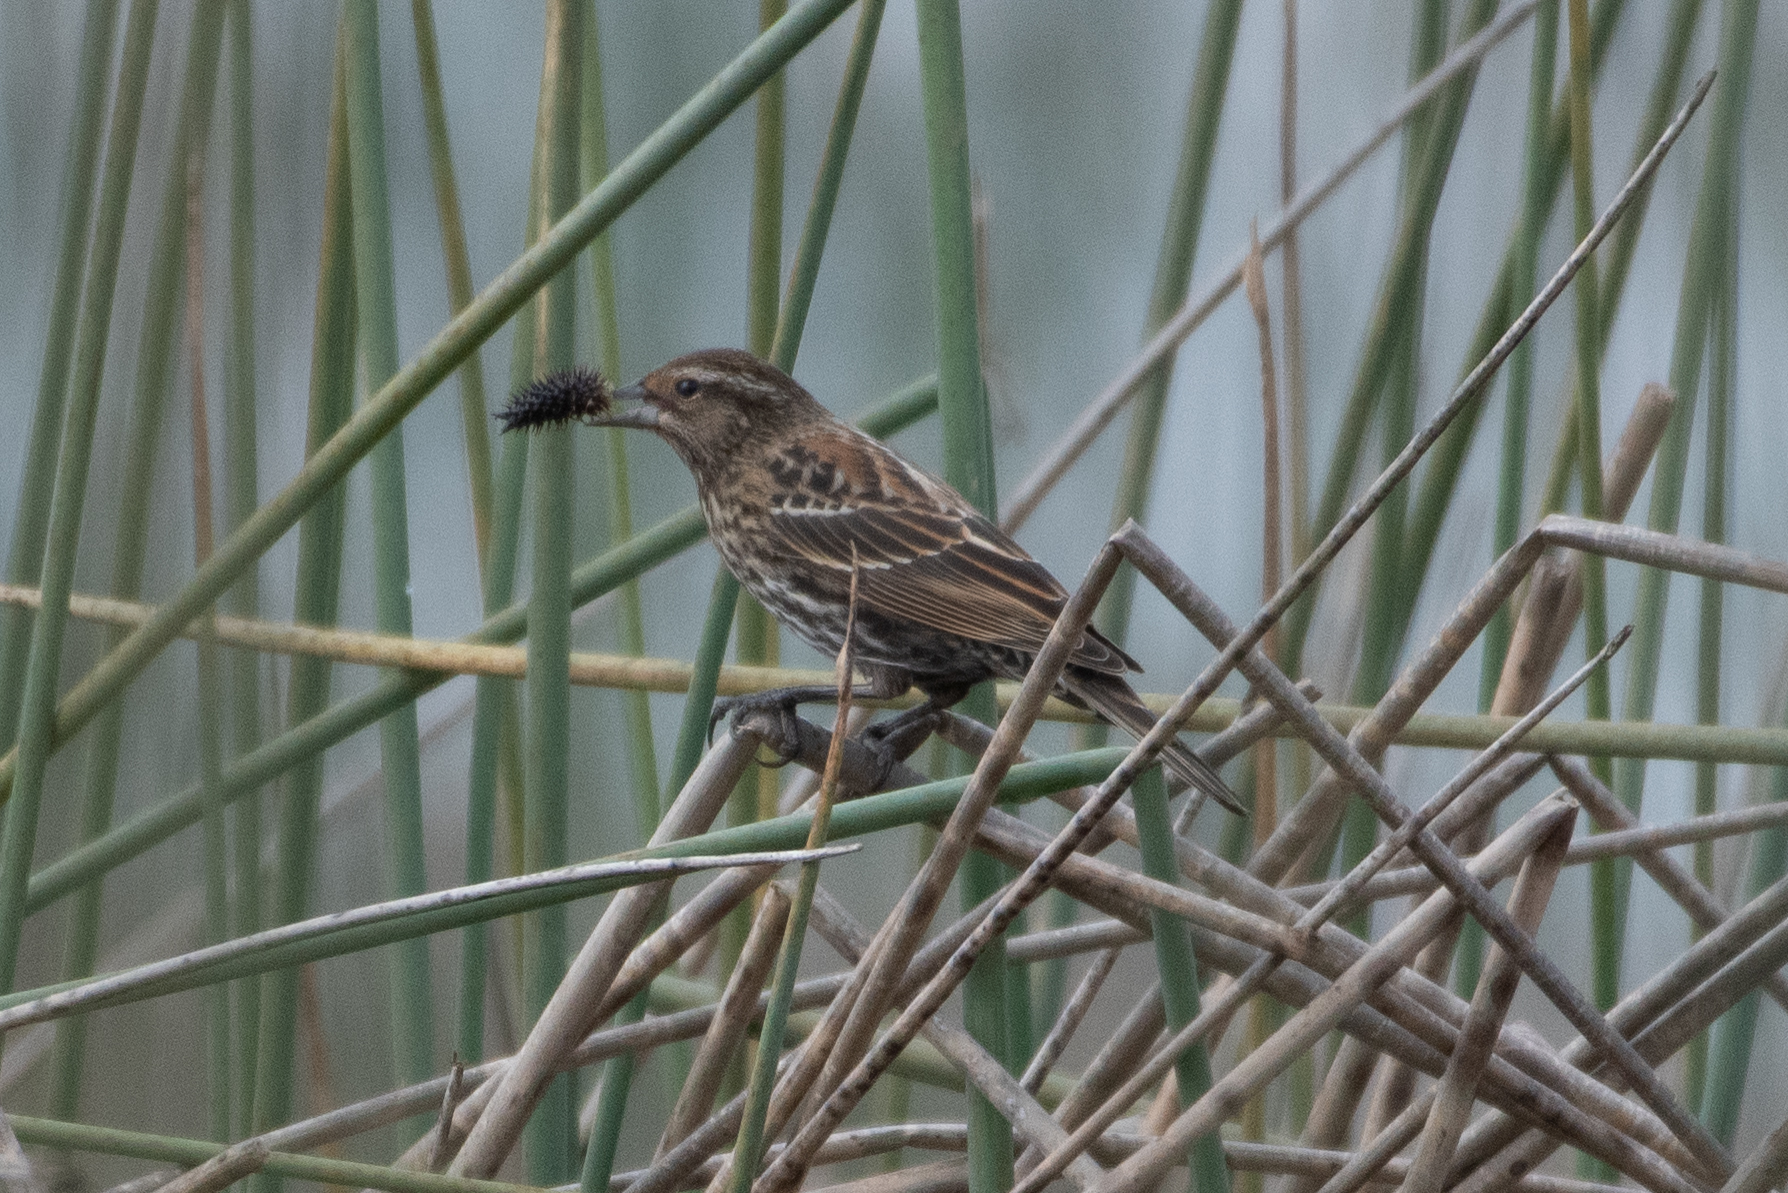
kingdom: Animalia
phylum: Chordata
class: Aves
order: Passeriformes
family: Icteridae
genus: Agelaius
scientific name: Agelaius phoeniceus
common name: Red-winged blackbird
